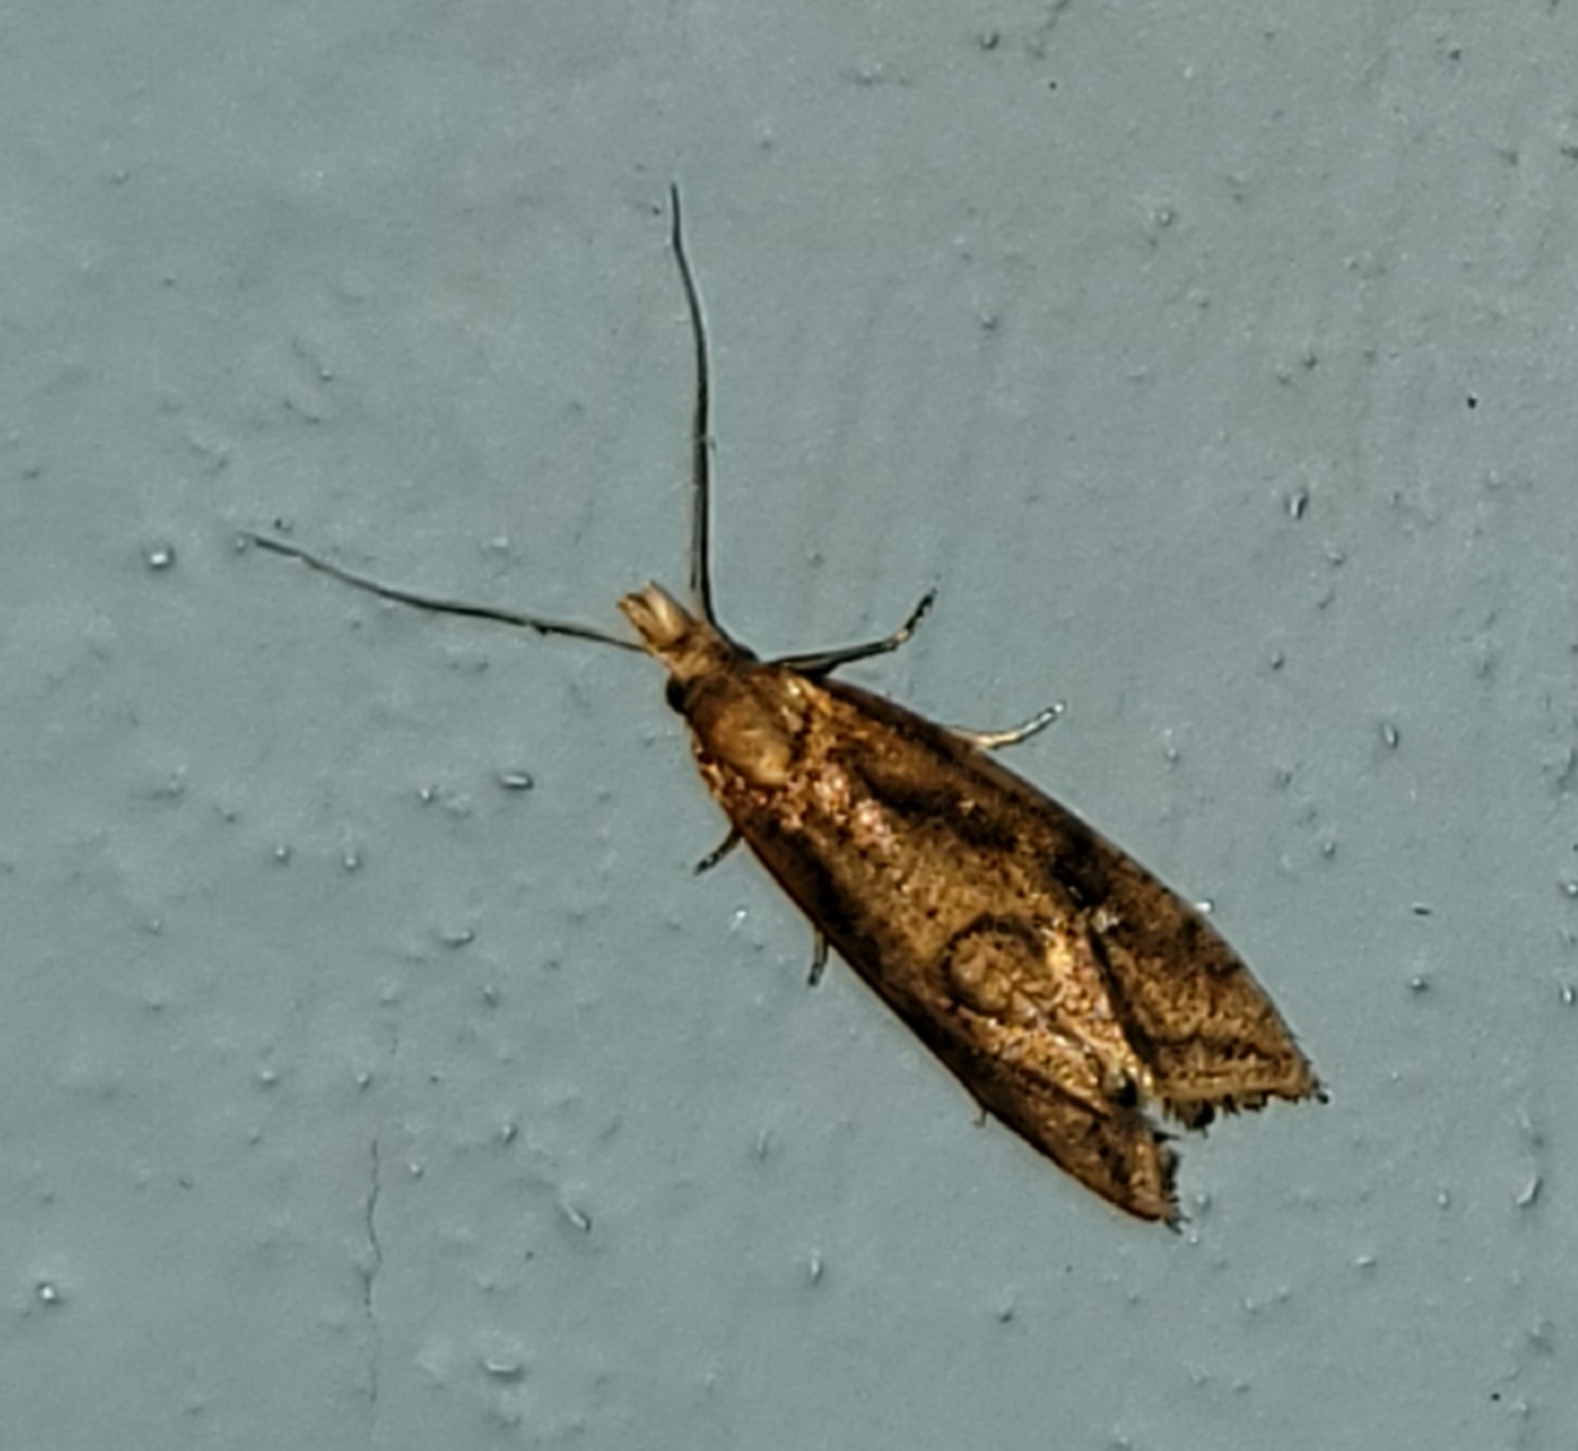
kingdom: Animalia
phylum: Arthropoda
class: Insecta
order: Lepidoptera
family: Tortricidae
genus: Aethes
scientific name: Aethes biscana
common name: Reddish aethes
